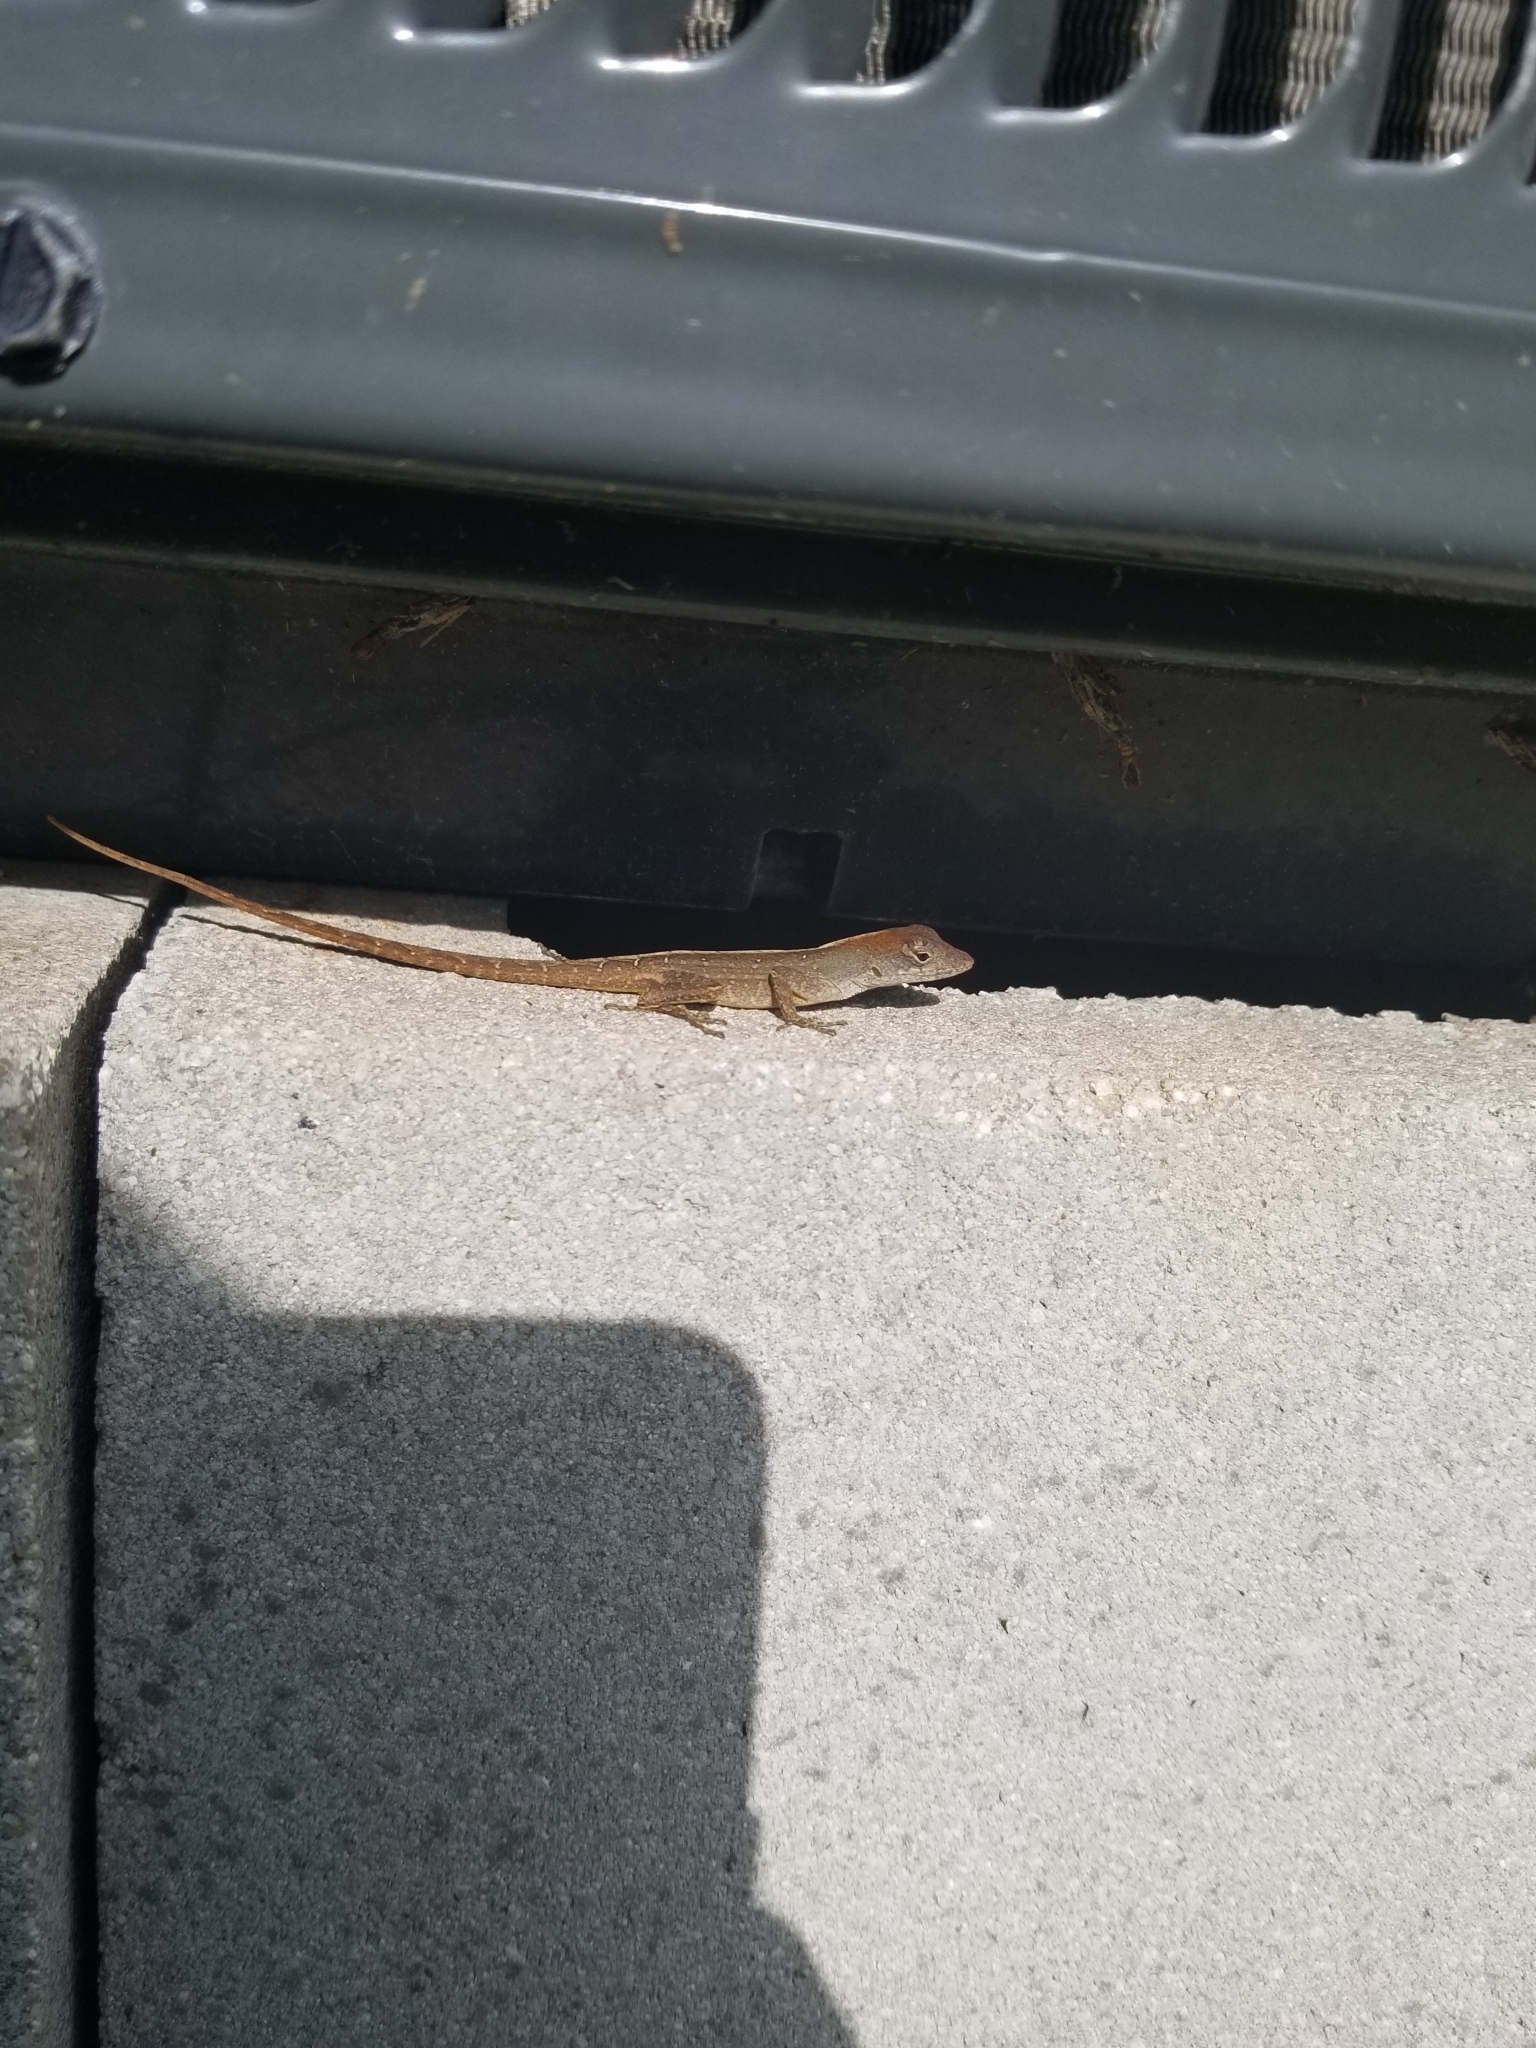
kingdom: Animalia
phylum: Chordata
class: Squamata
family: Dactyloidae
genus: Anolis
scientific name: Anolis sagrei
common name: Brown anole
